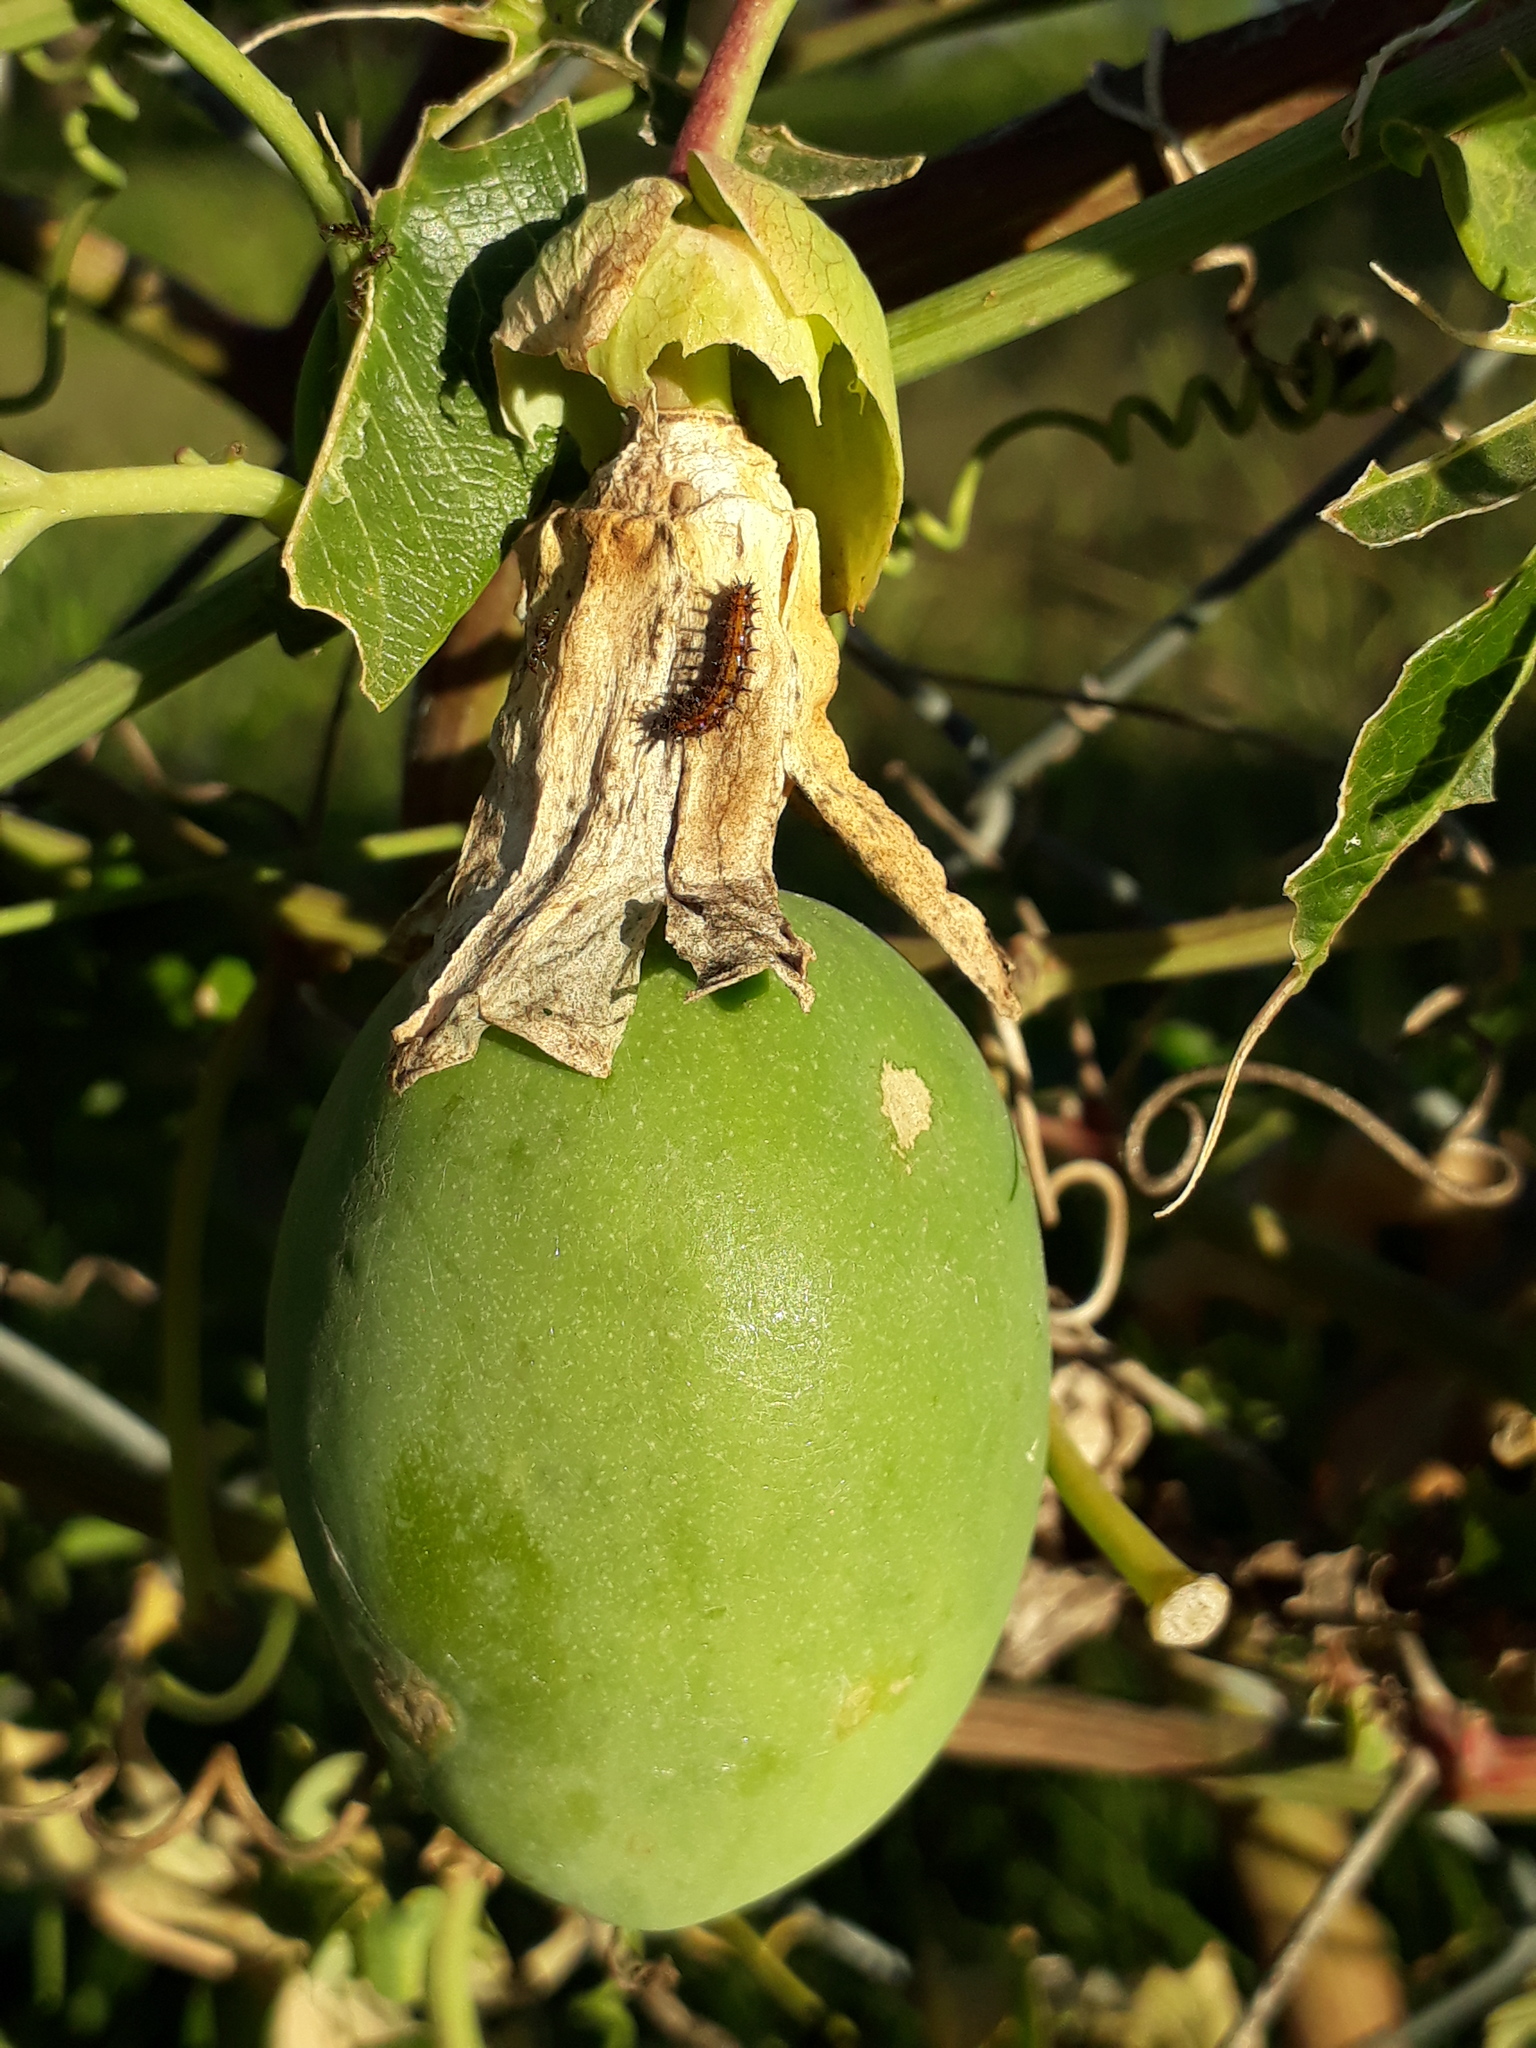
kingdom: Plantae
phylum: Tracheophyta
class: Magnoliopsida
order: Malpighiales
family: Passifloraceae
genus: Passiflora
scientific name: Passiflora caerulea
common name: Blue passionflower
